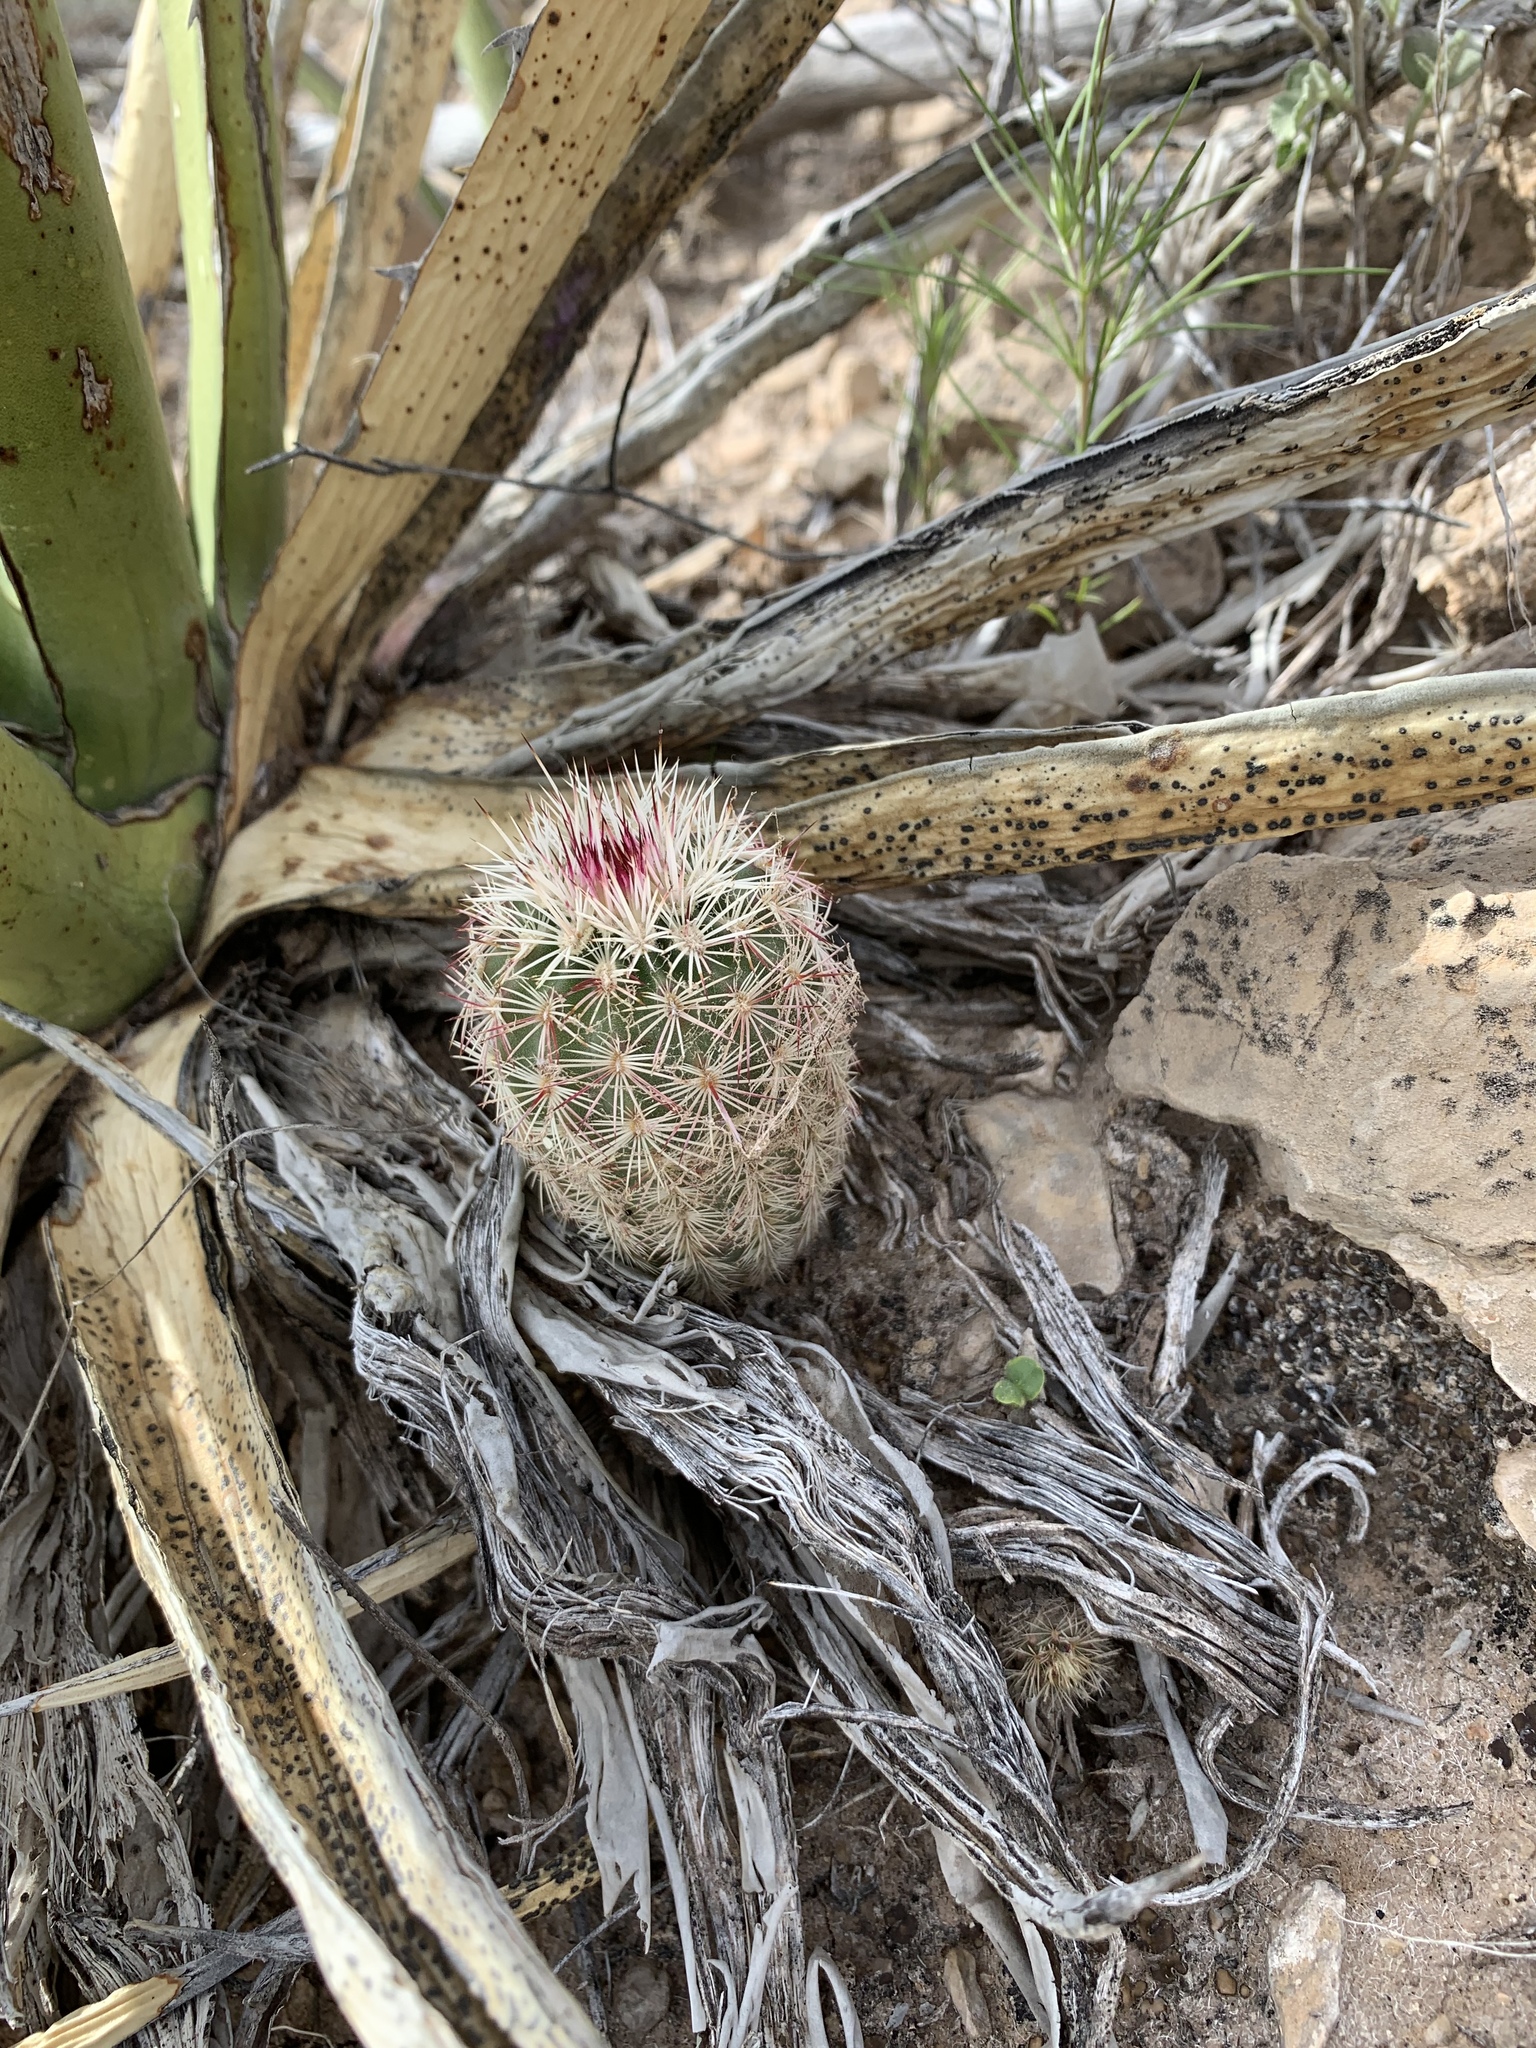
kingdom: Plantae
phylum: Tracheophyta
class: Magnoliopsida
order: Caryophyllales
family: Cactaceae
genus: Echinocereus
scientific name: Echinocereus viridiflorus
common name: Nylon hedgehog cactus
